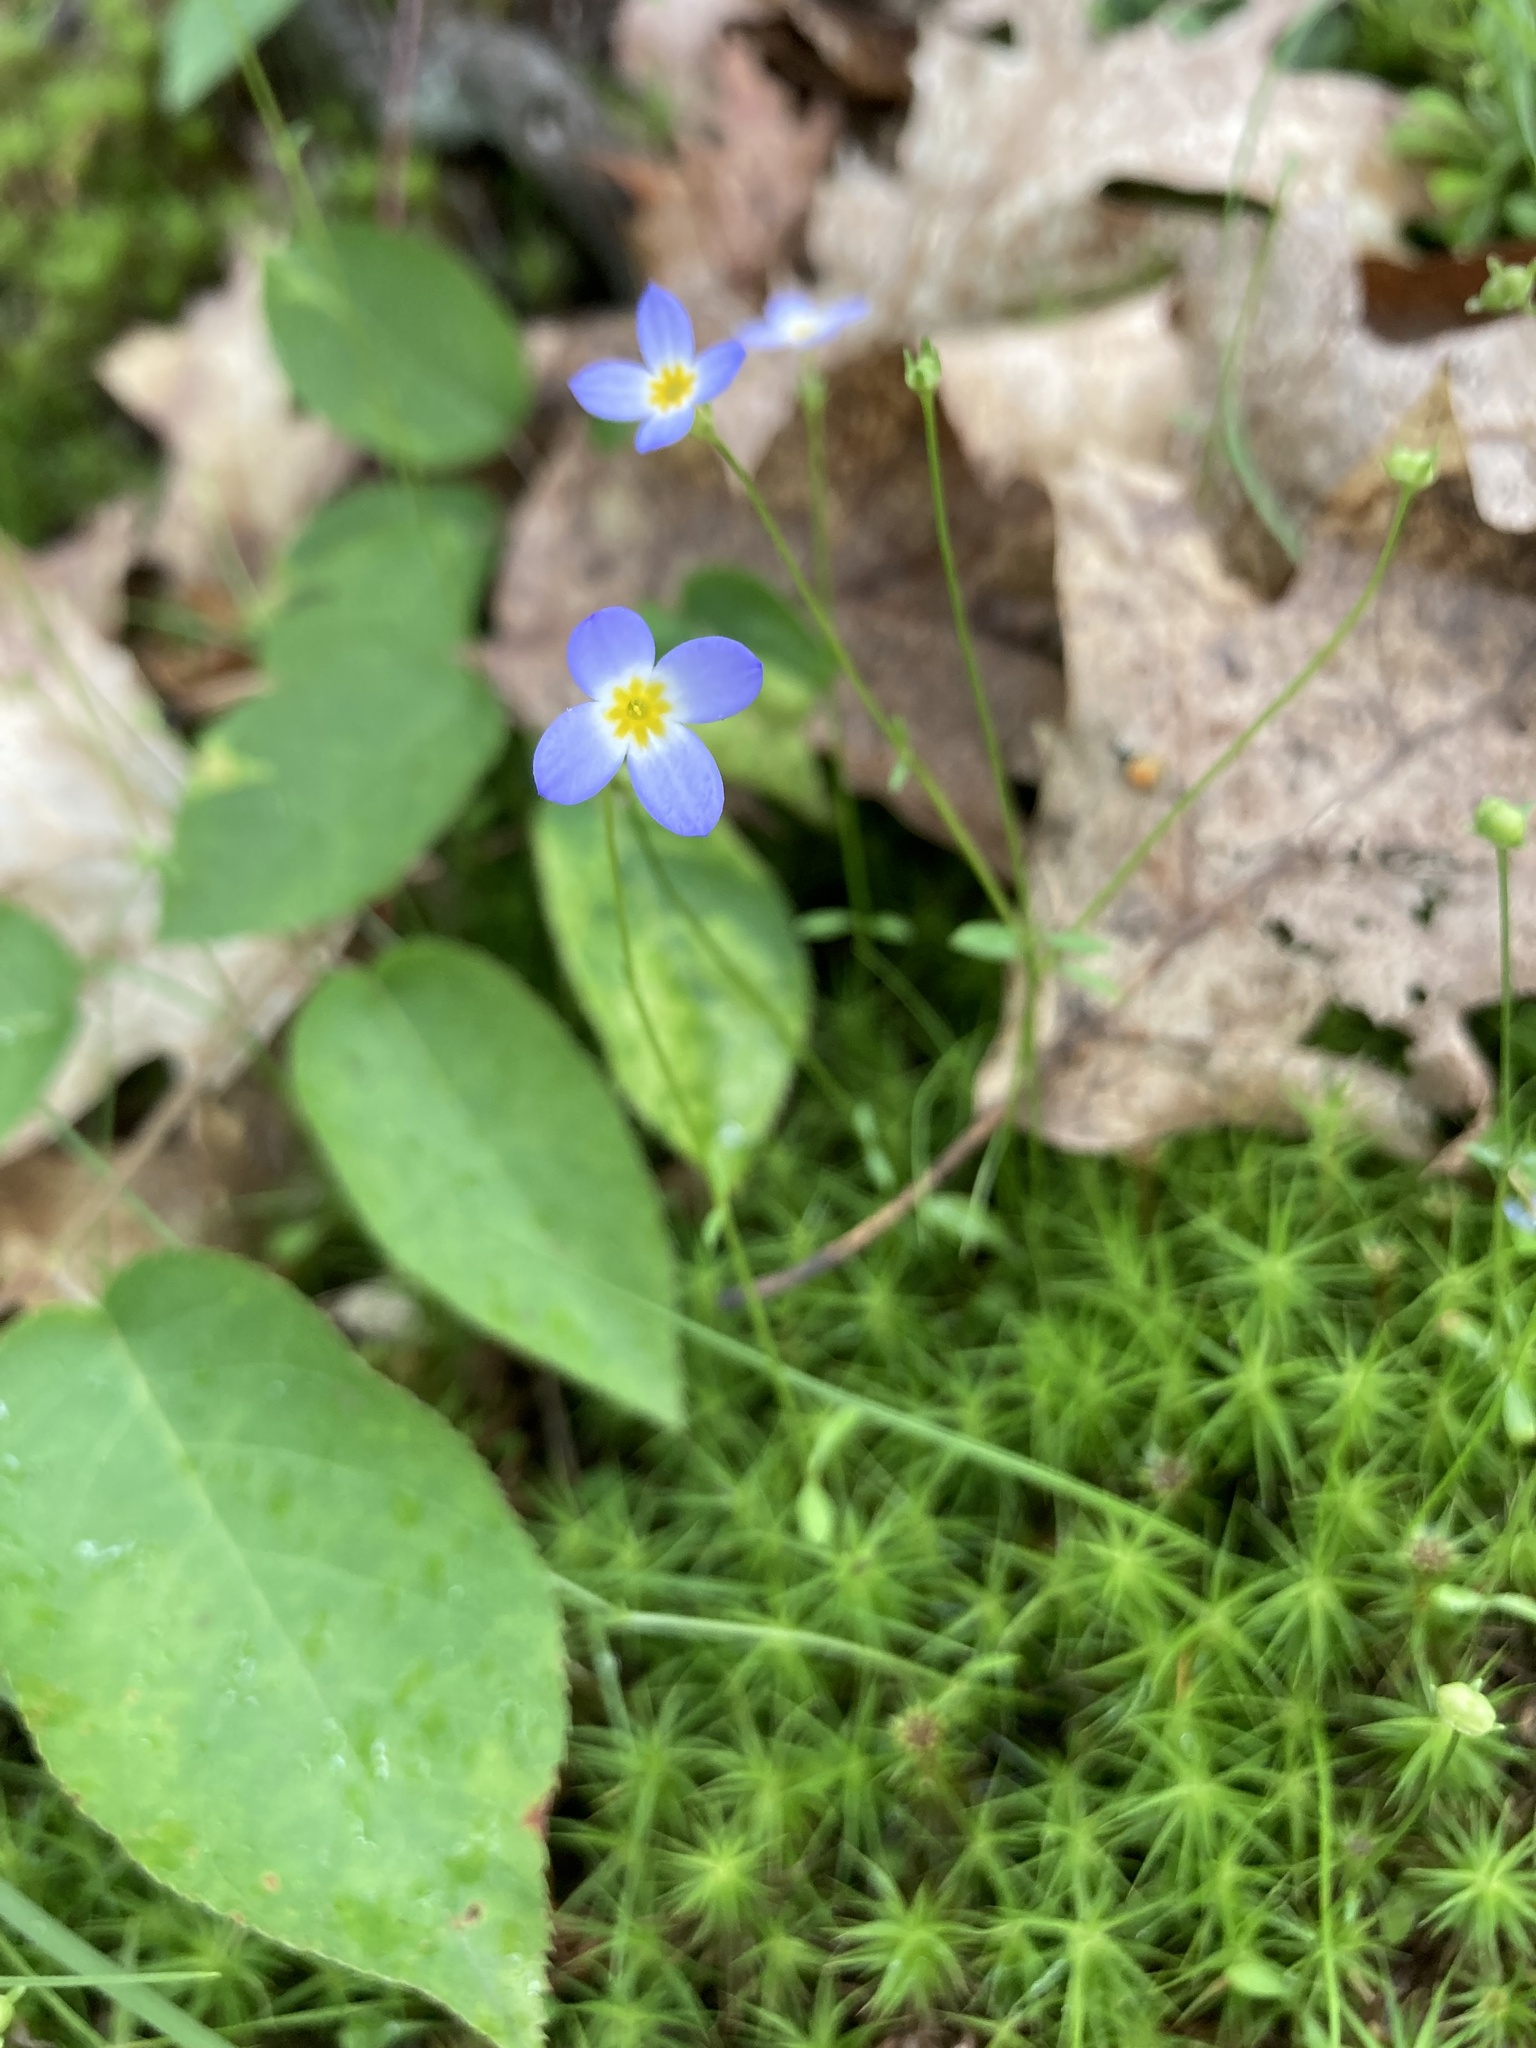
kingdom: Plantae
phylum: Tracheophyta
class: Magnoliopsida
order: Gentianales
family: Rubiaceae
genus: Houstonia
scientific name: Houstonia caerulea
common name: Bluets
